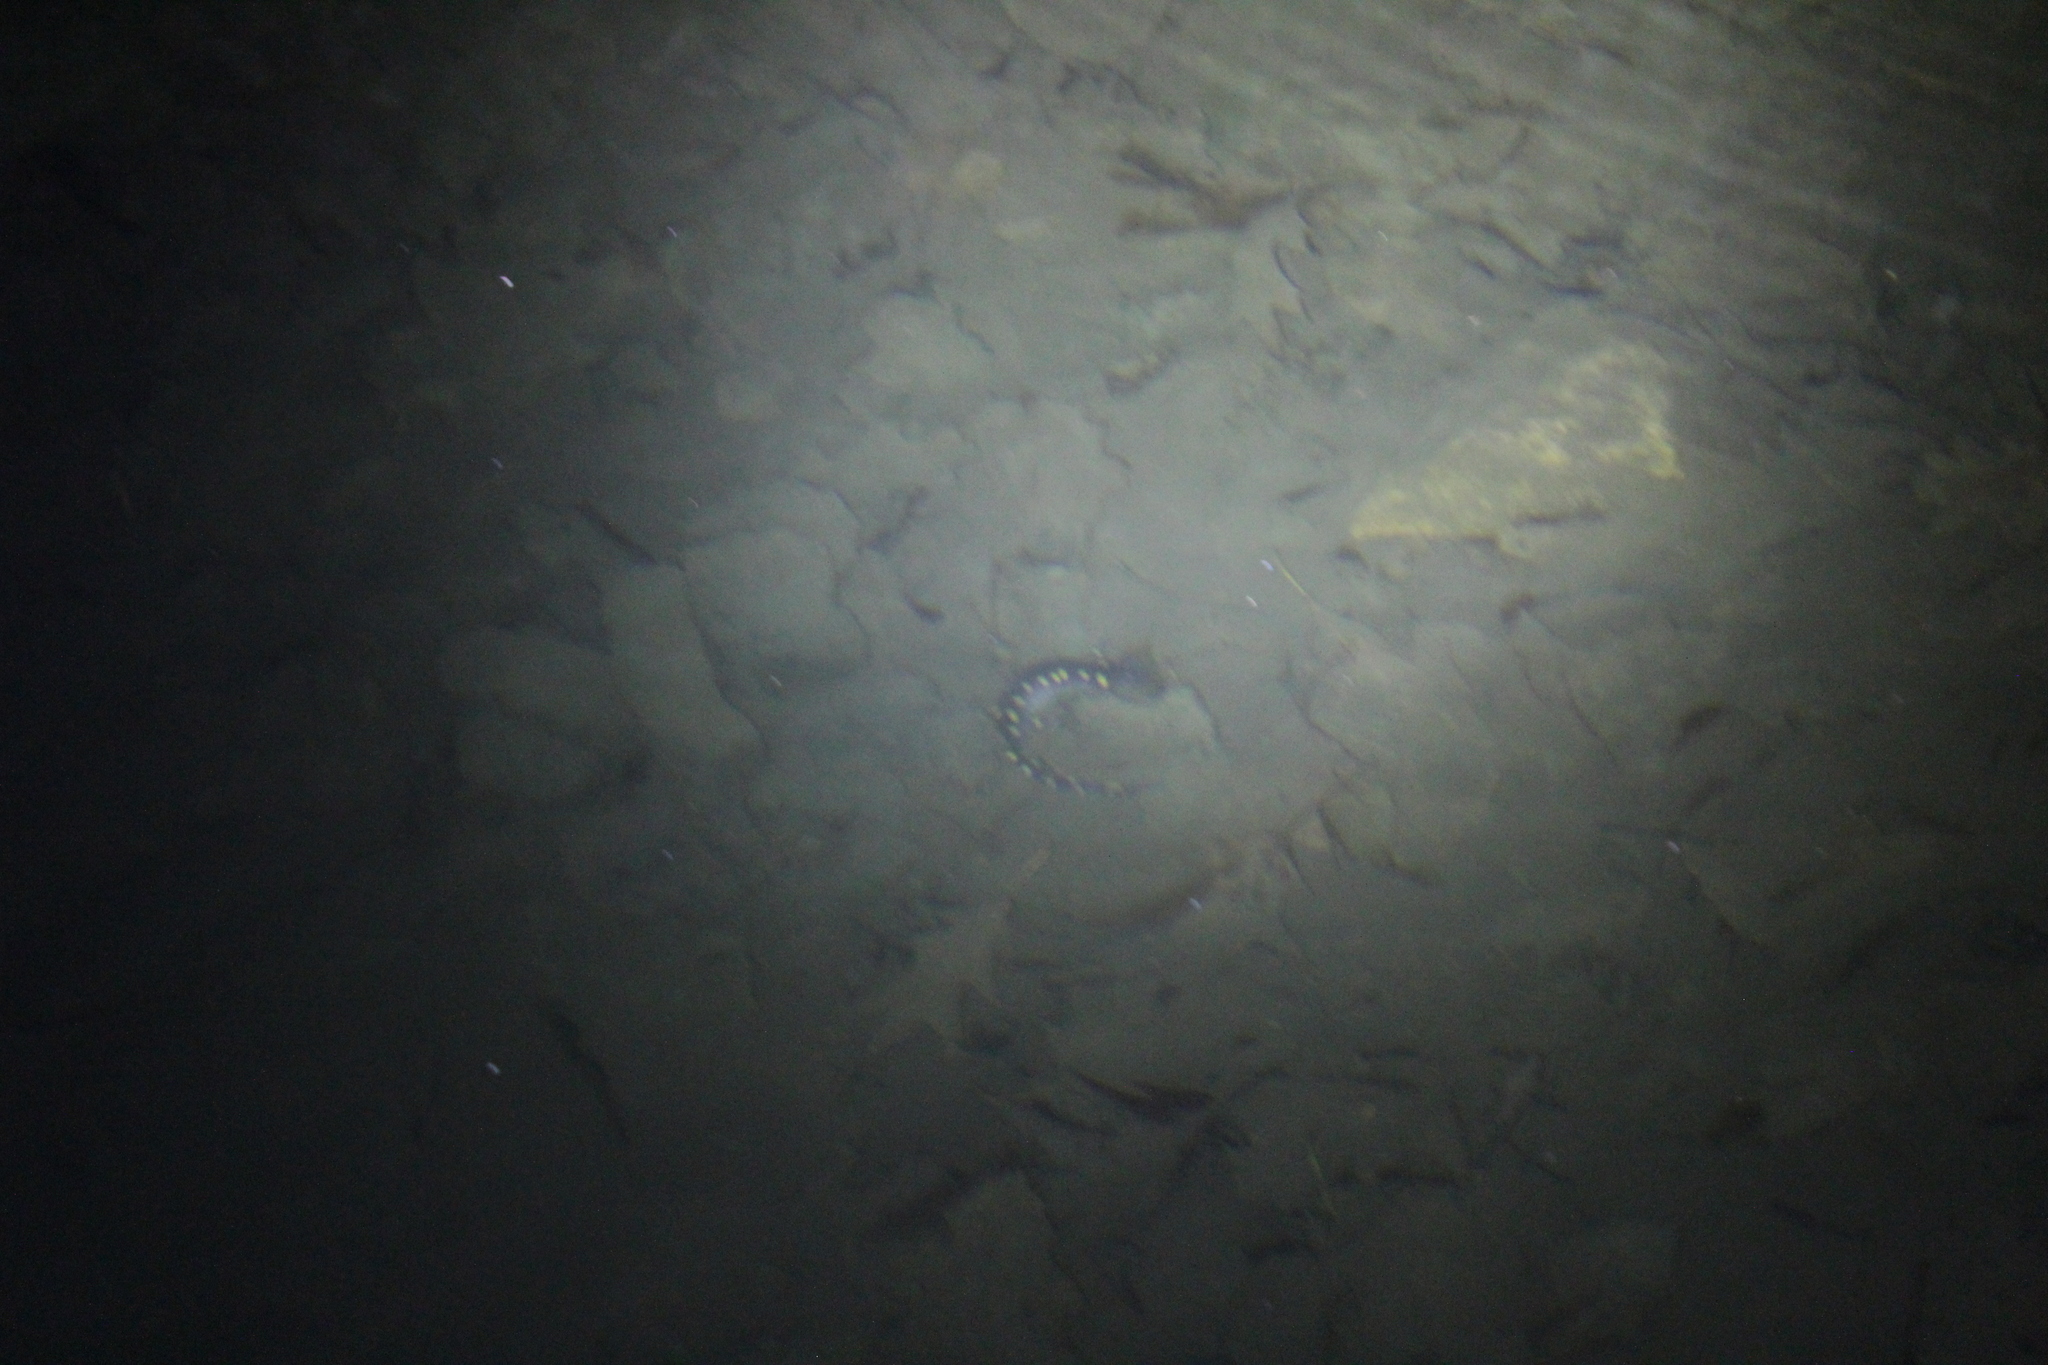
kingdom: Animalia
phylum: Chordata
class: Amphibia
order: Caudata
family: Ambystomatidae
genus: Ambystoma
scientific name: Ambystoma maculatum
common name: Spotted salamander
